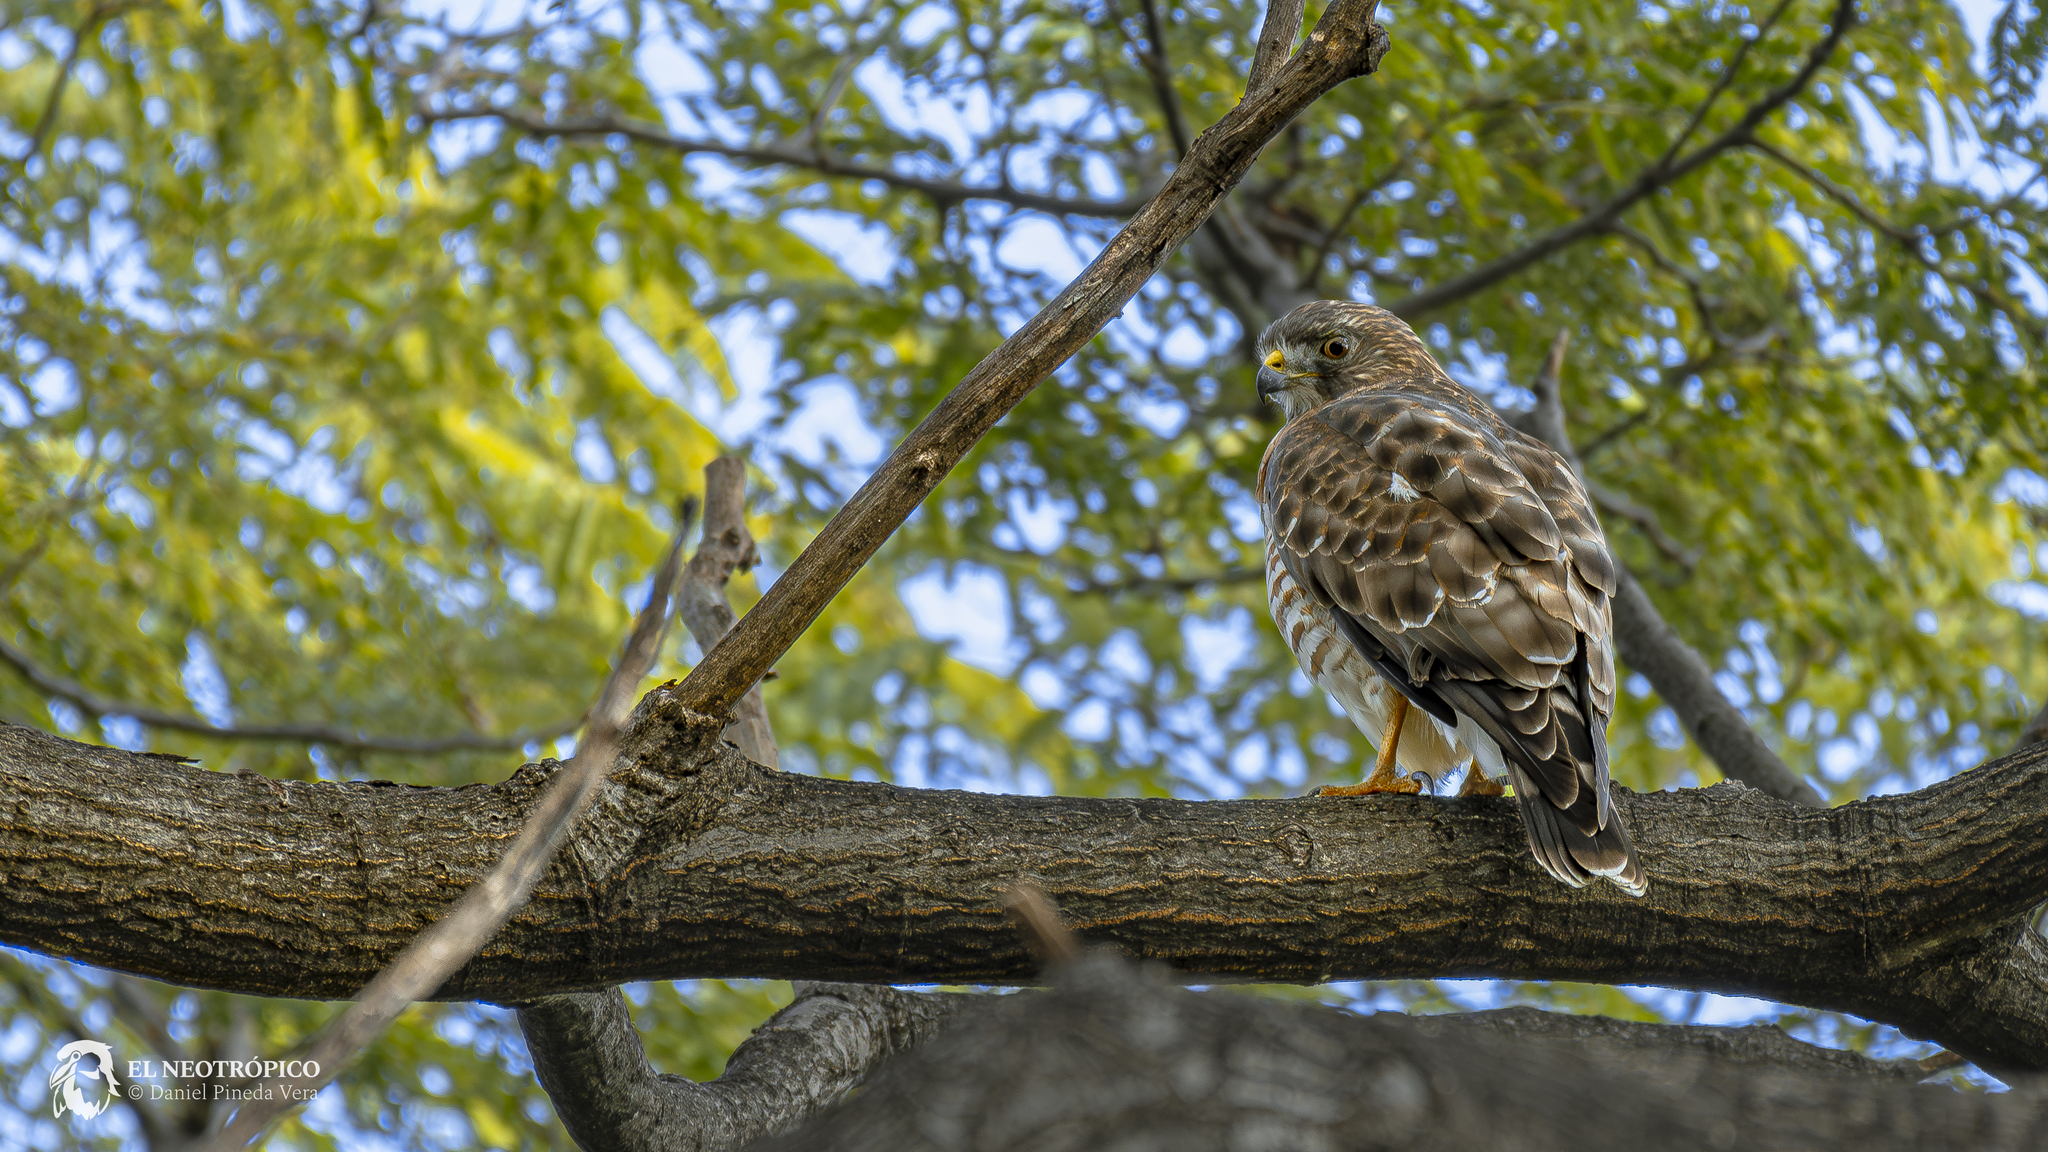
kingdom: Animalia
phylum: Chordata
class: Aves
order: Accipitriformes
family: Accipitridae
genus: Buteo
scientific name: Buteo platypterus
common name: Broad-winged hawk
